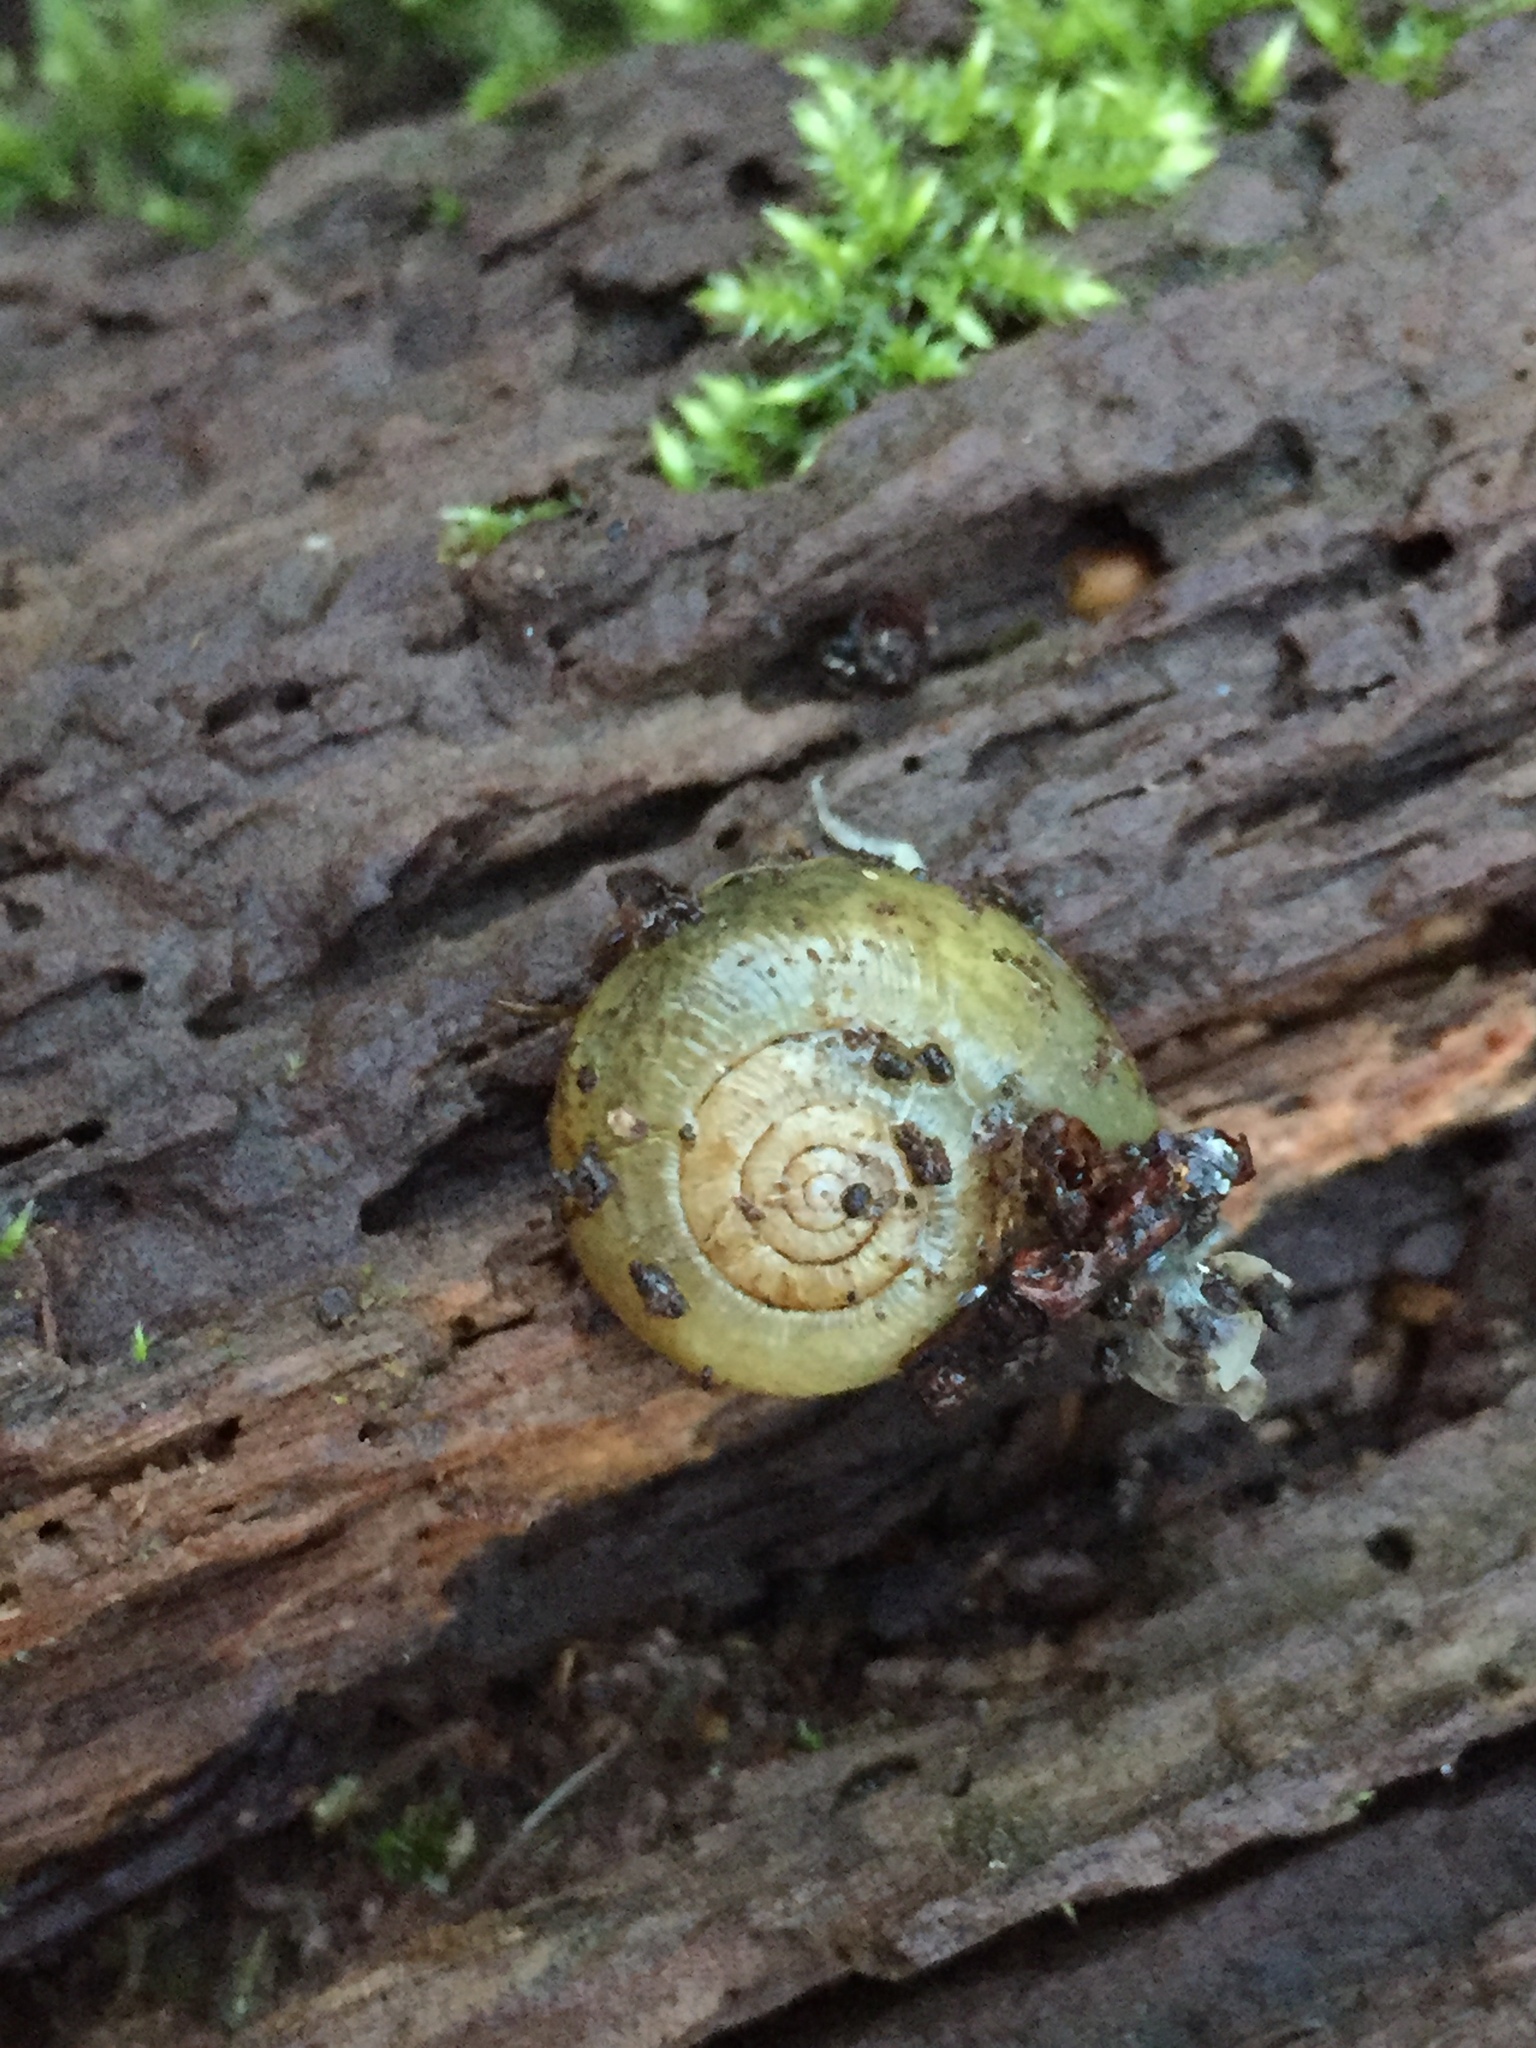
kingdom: Animalia
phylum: Mollusca
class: Gastropoda
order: Stylommatophora
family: Haplotrematidae
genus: Haplotrema
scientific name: Haplotrema vancouverense
